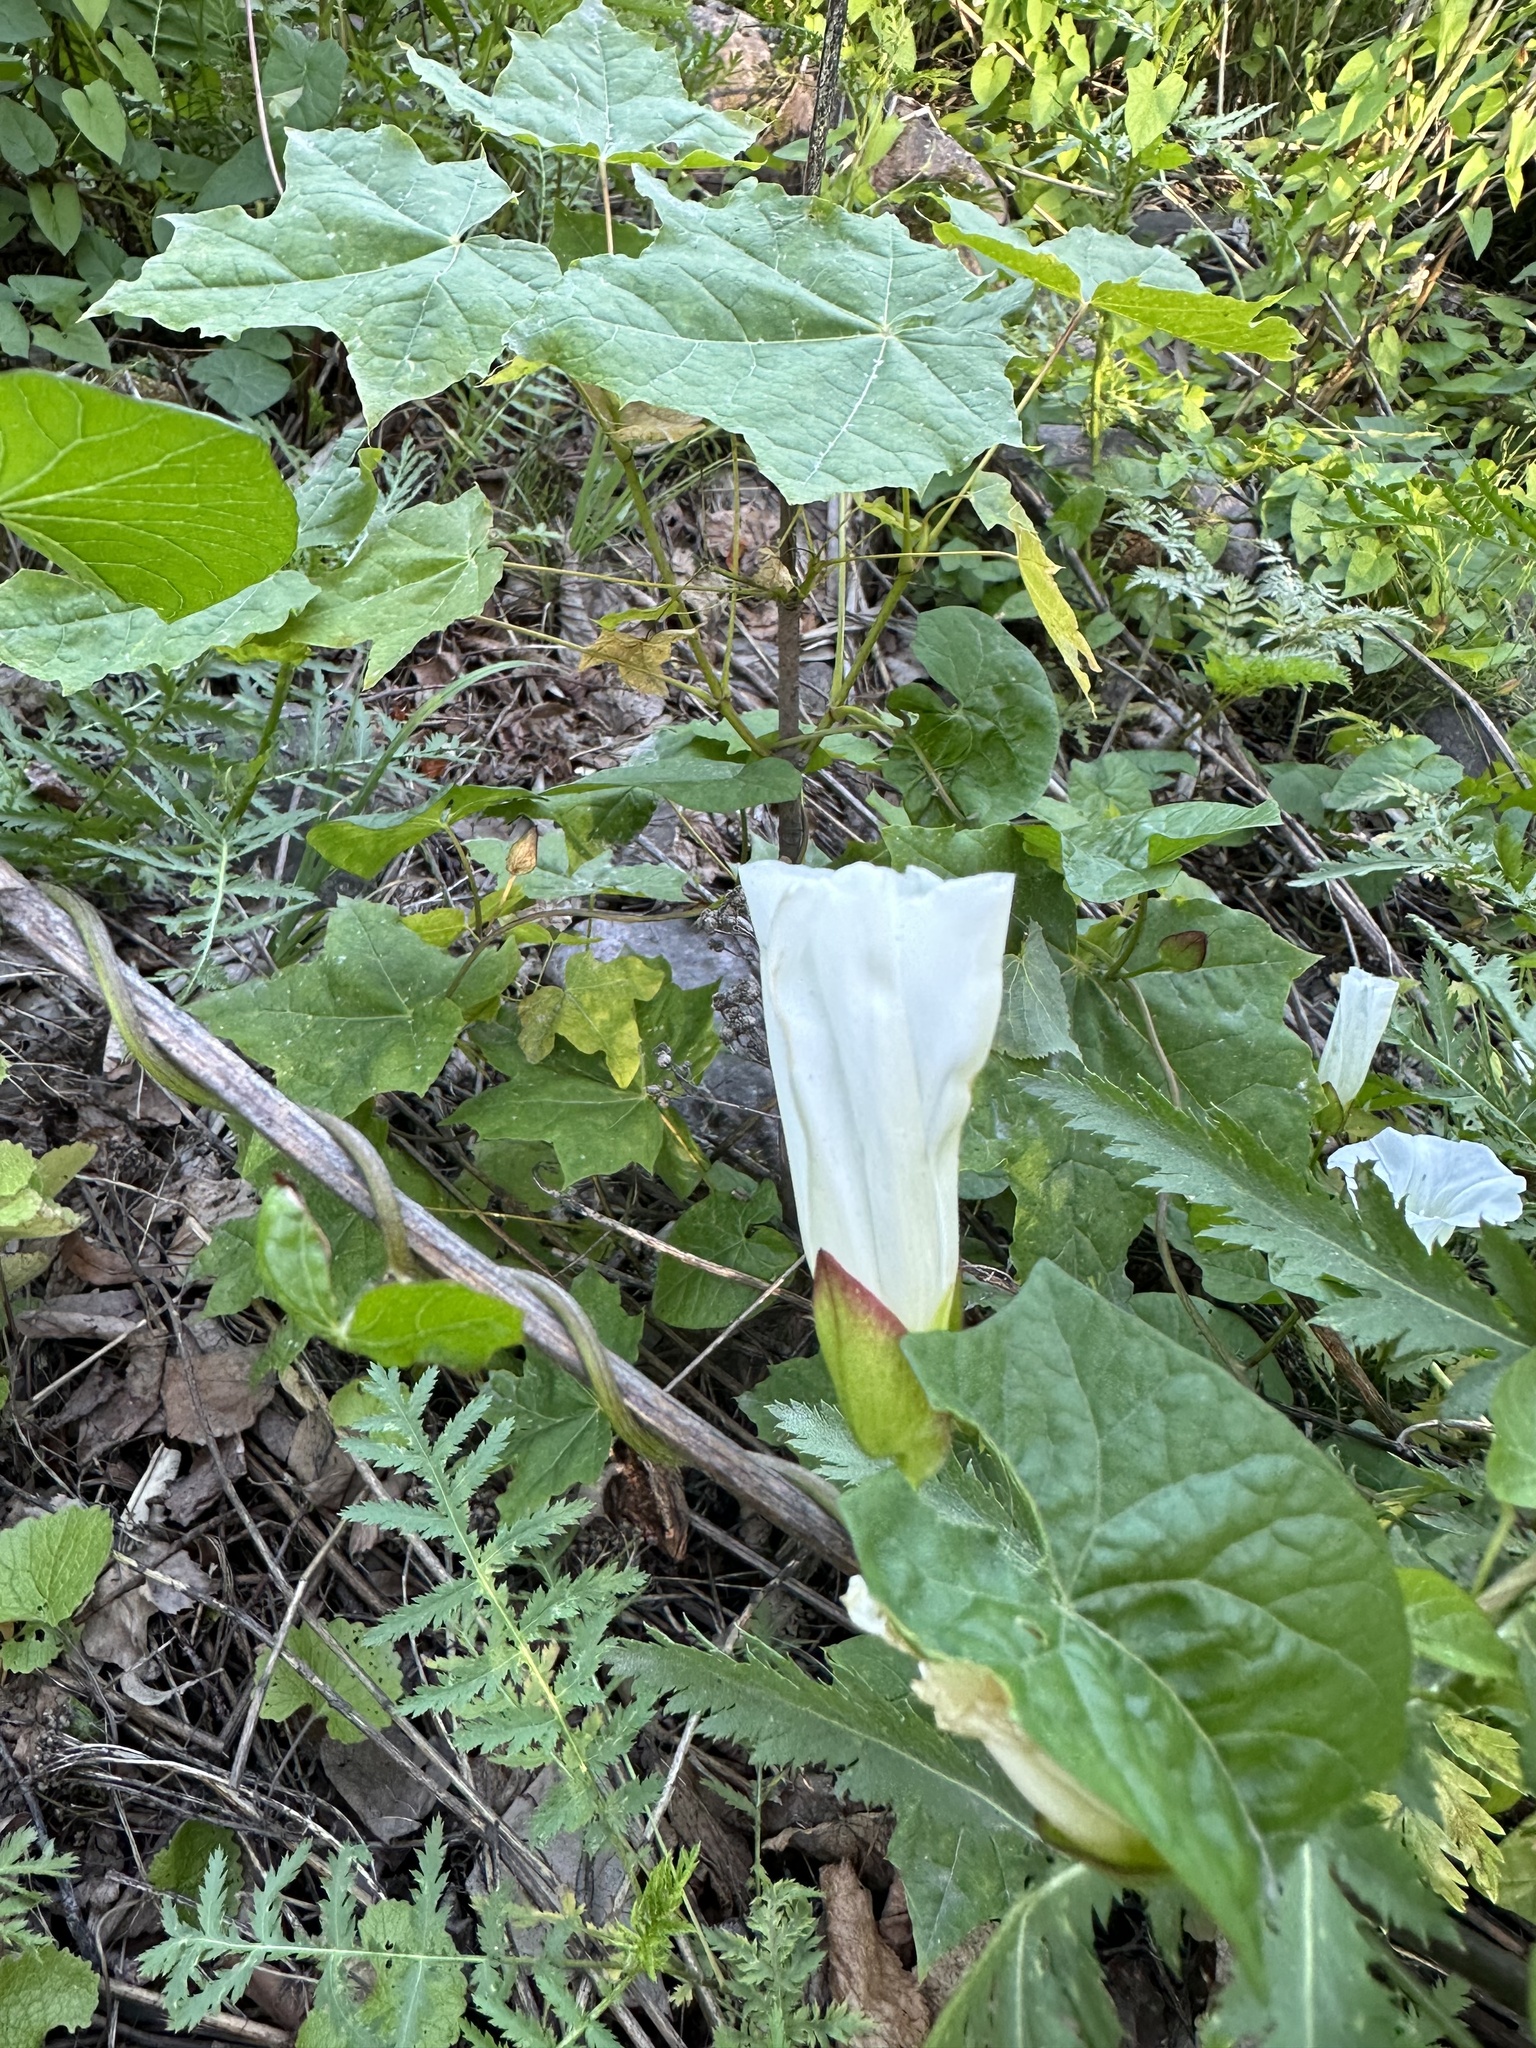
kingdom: Plantae
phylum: Tracheophyta
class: Magnoliopsida
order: Solanales
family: Convolvulaceae
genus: Calystegia
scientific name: Calystegia sepium
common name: Hedge bindweed
